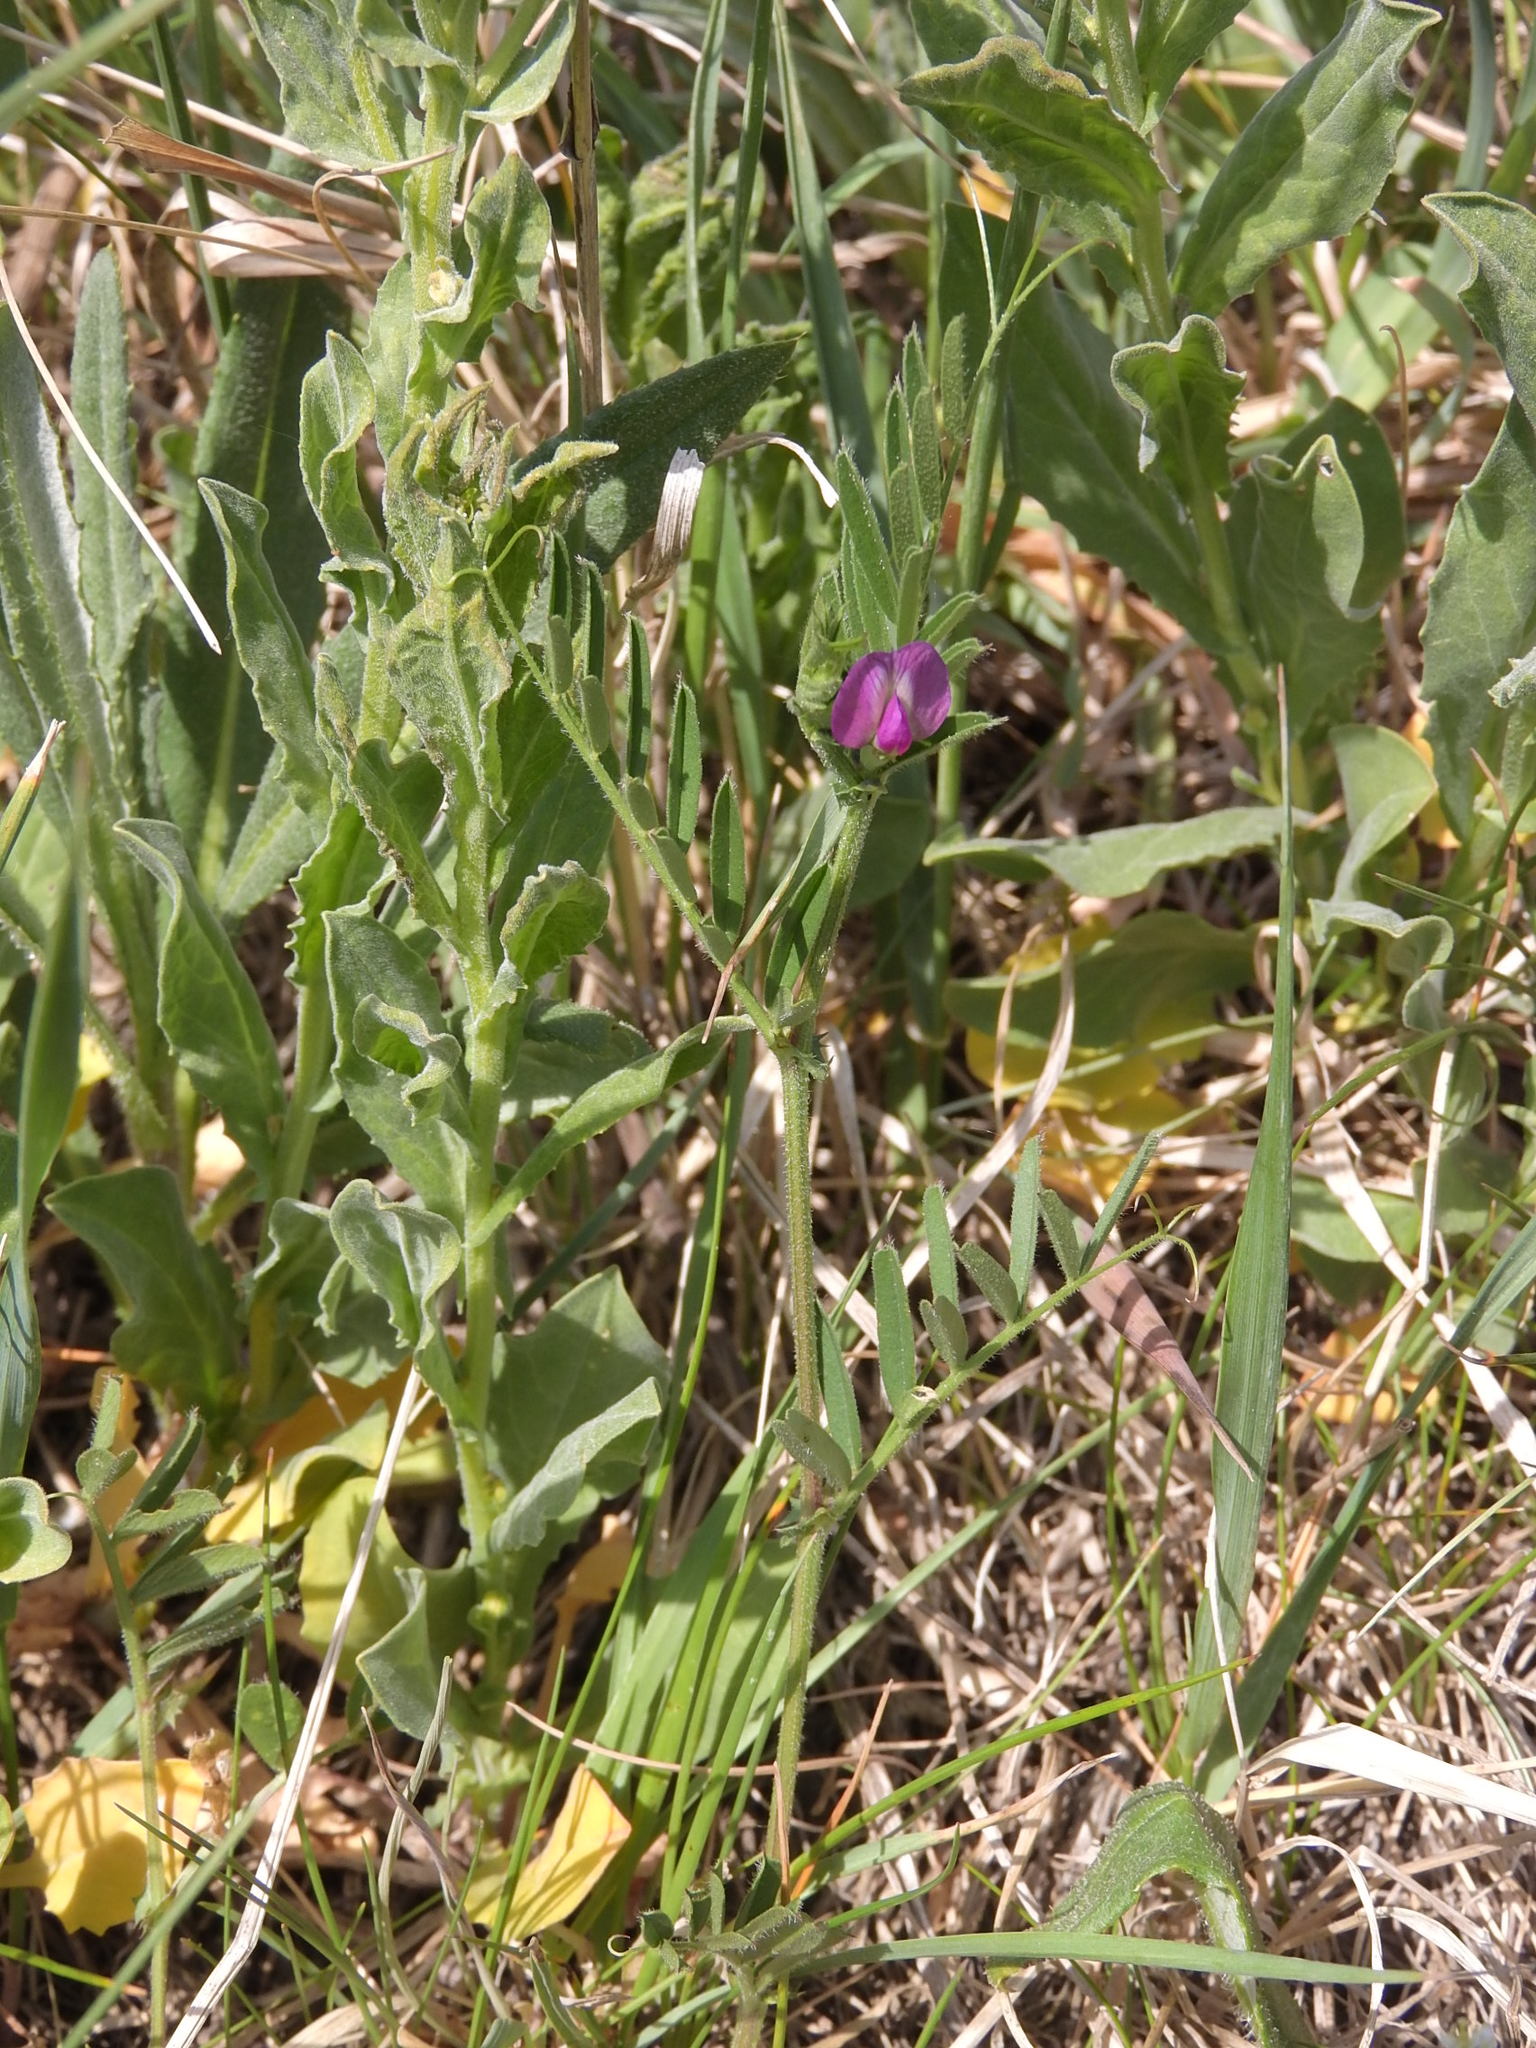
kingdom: Plantae
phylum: Tracheophyta
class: Magnoliopsida
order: Fabales
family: Fabaceae
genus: Vicia
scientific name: Vicia sativa
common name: Garden vetch
